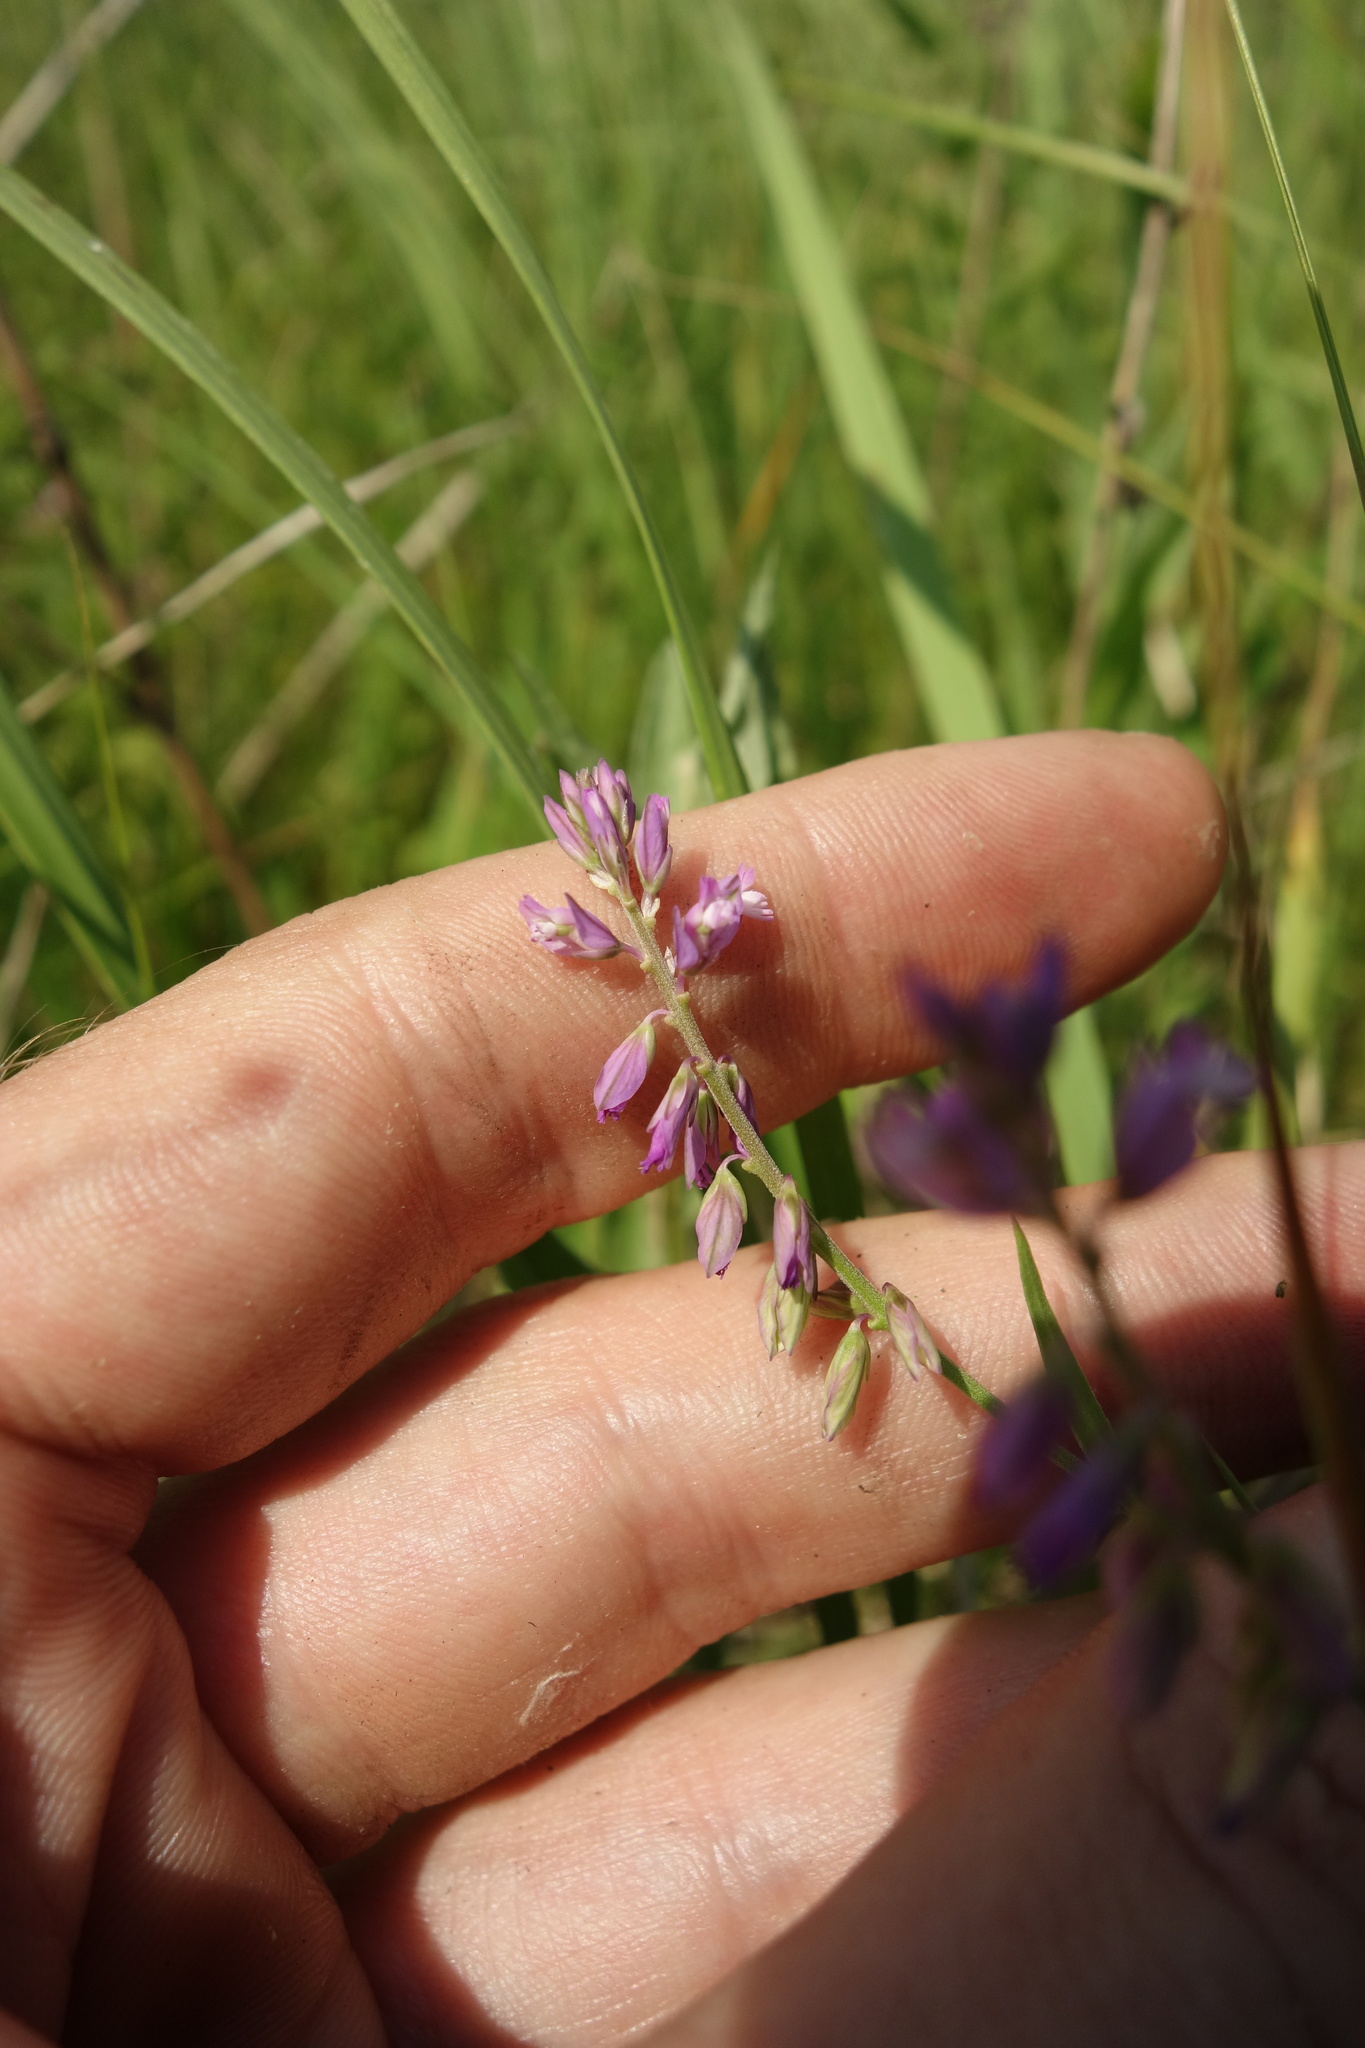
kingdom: Plantae
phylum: Tracheophyta
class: Magnoliopsida
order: Fabales
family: Polygalaceae
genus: Polygala
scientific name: Polygala comosa
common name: Tufted milkwort
